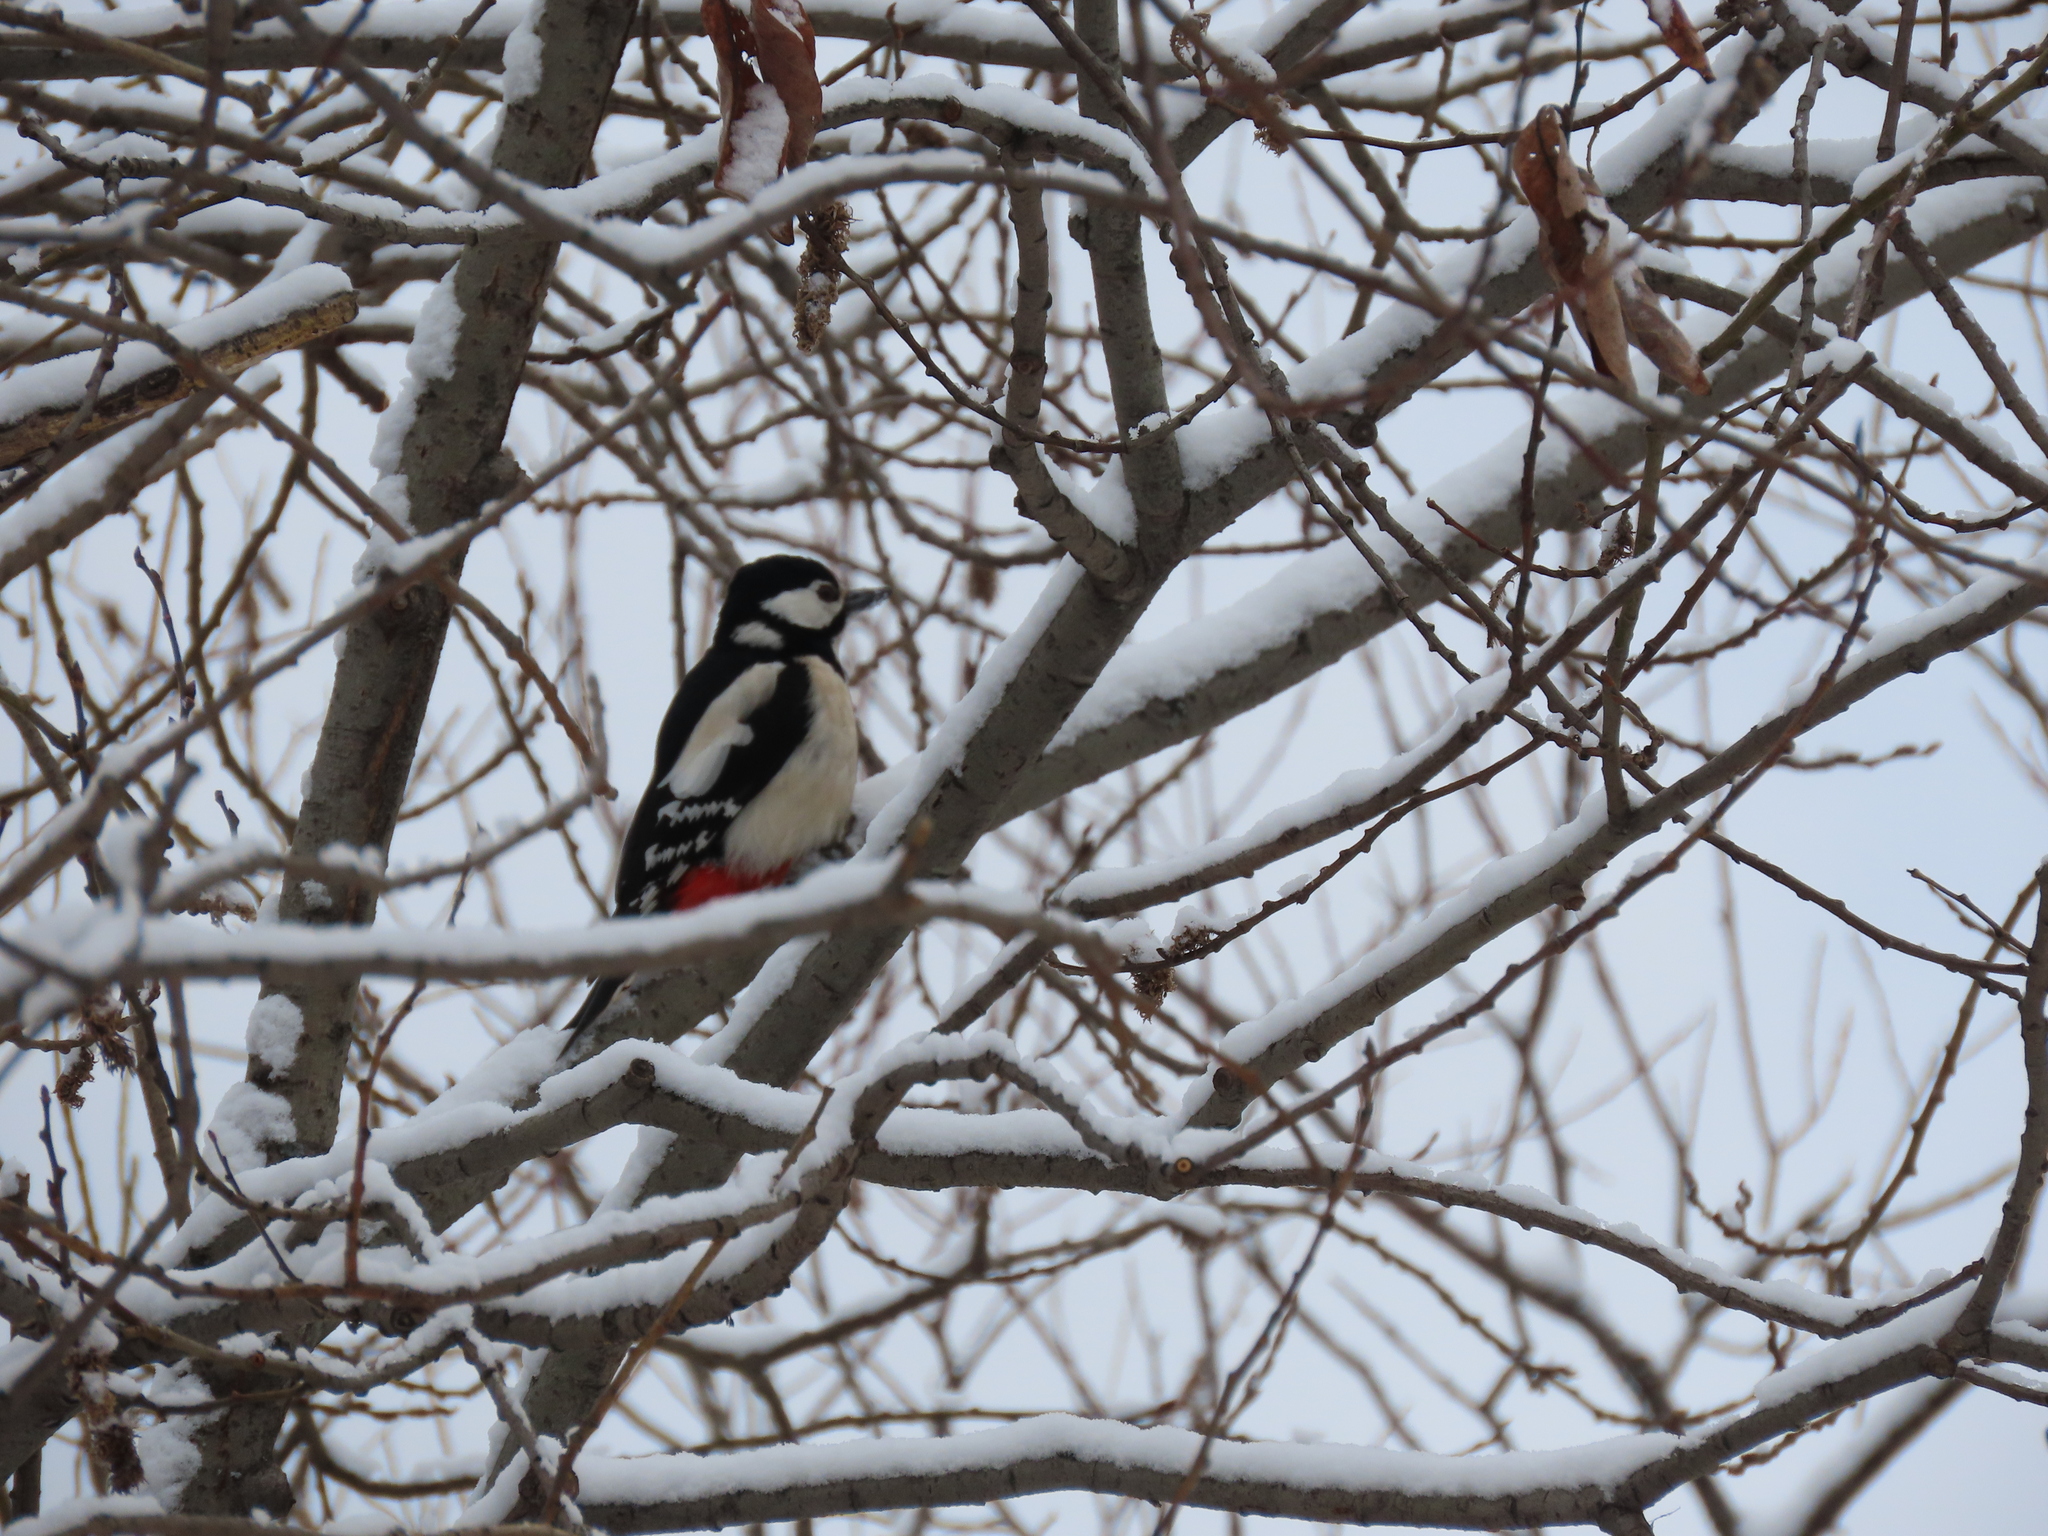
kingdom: Animalia
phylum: Chordata
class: Aves
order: Piciformes
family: Picidae
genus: Dendrocopos
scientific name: Dendrocopos major
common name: Great spotted woodpecker
